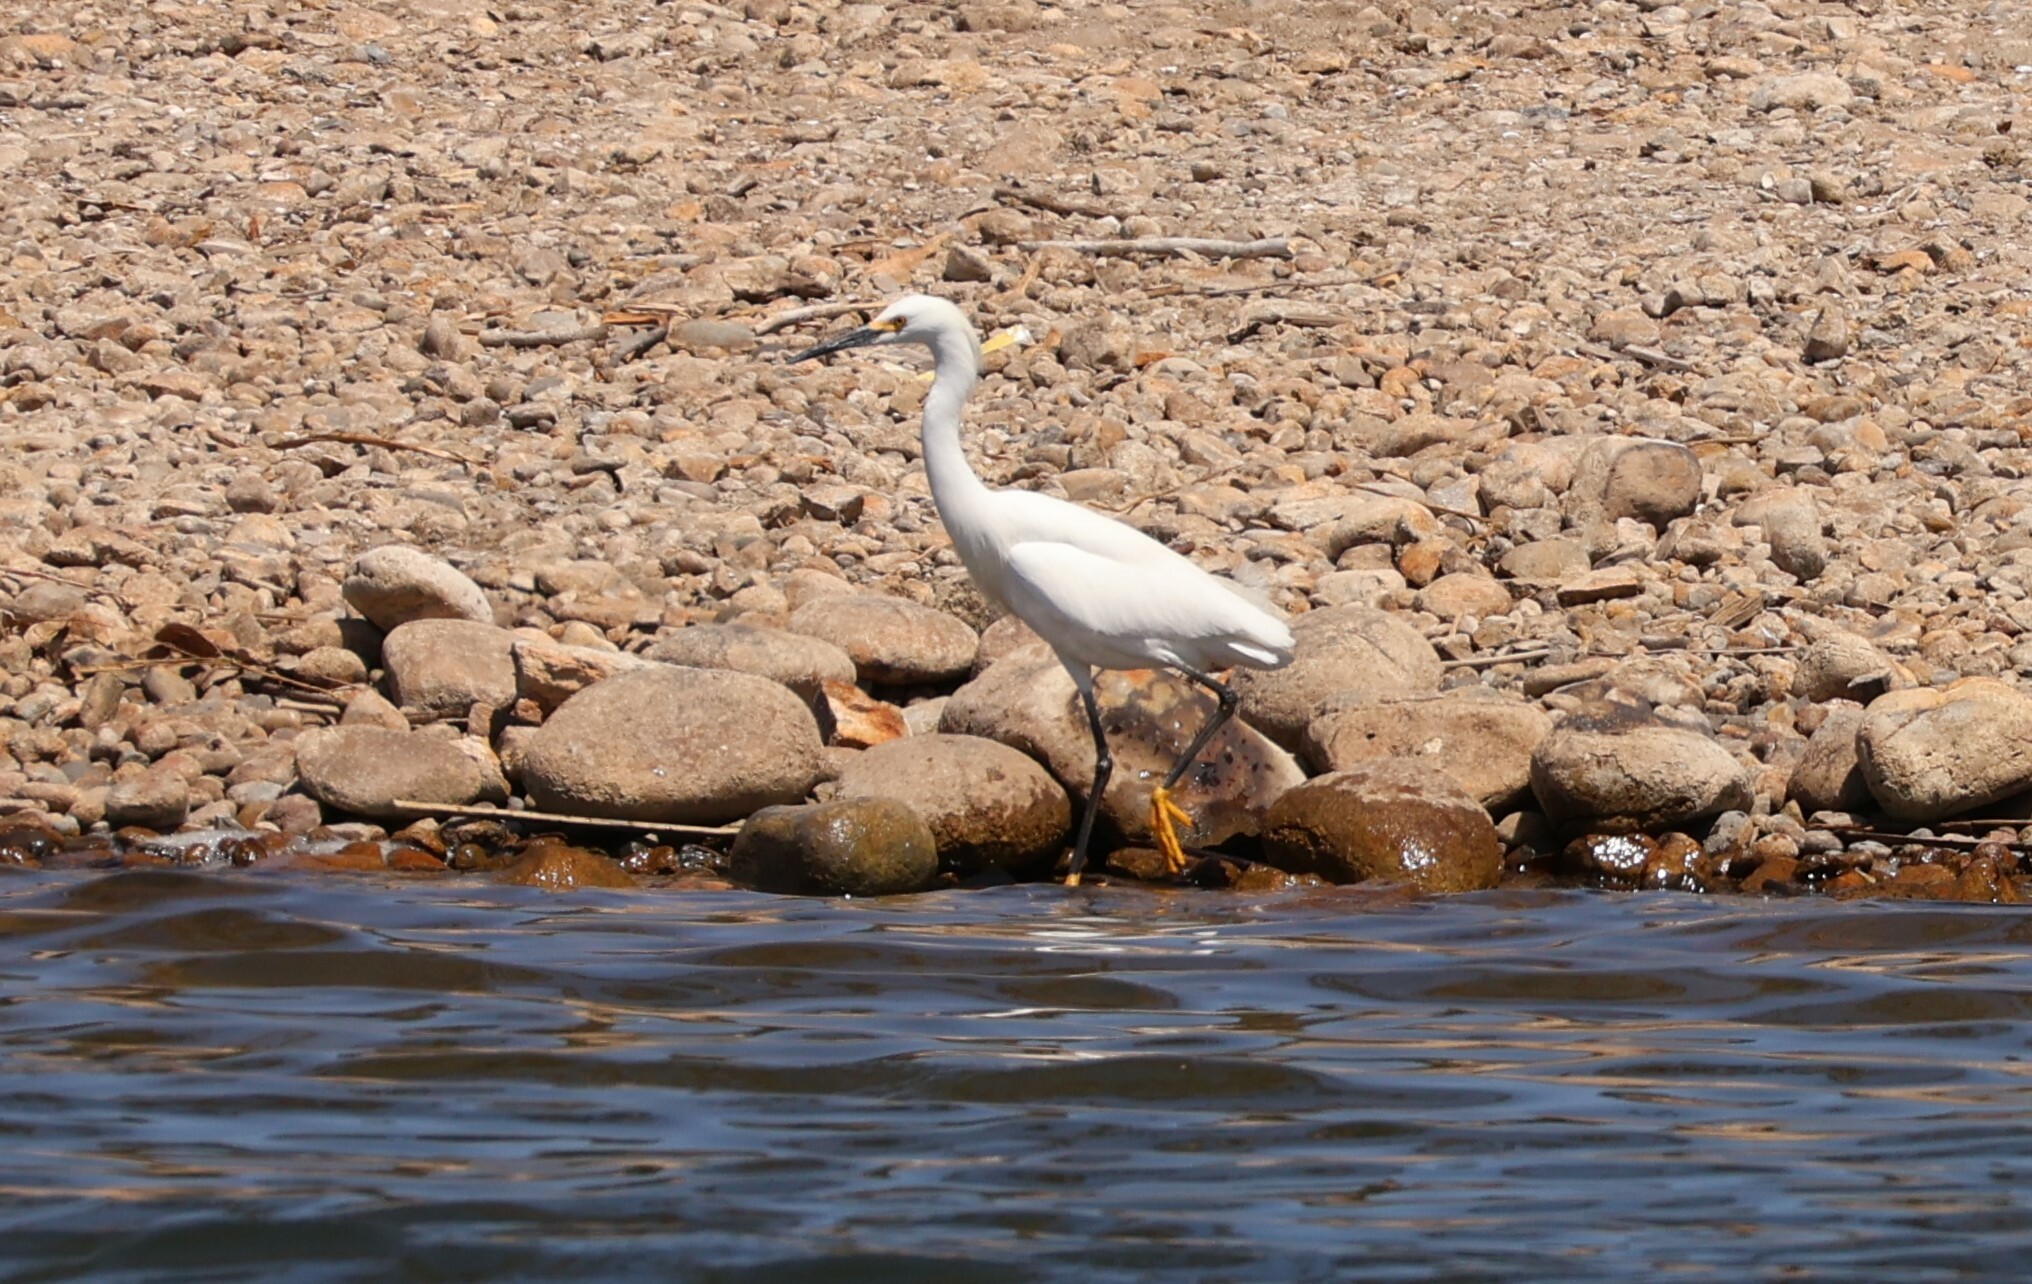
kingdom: Animalia
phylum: Chordata
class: Aves
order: Pelecaniformes
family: Ardeidae
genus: Egretta
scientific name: Egretta thula
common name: Snowy egret
